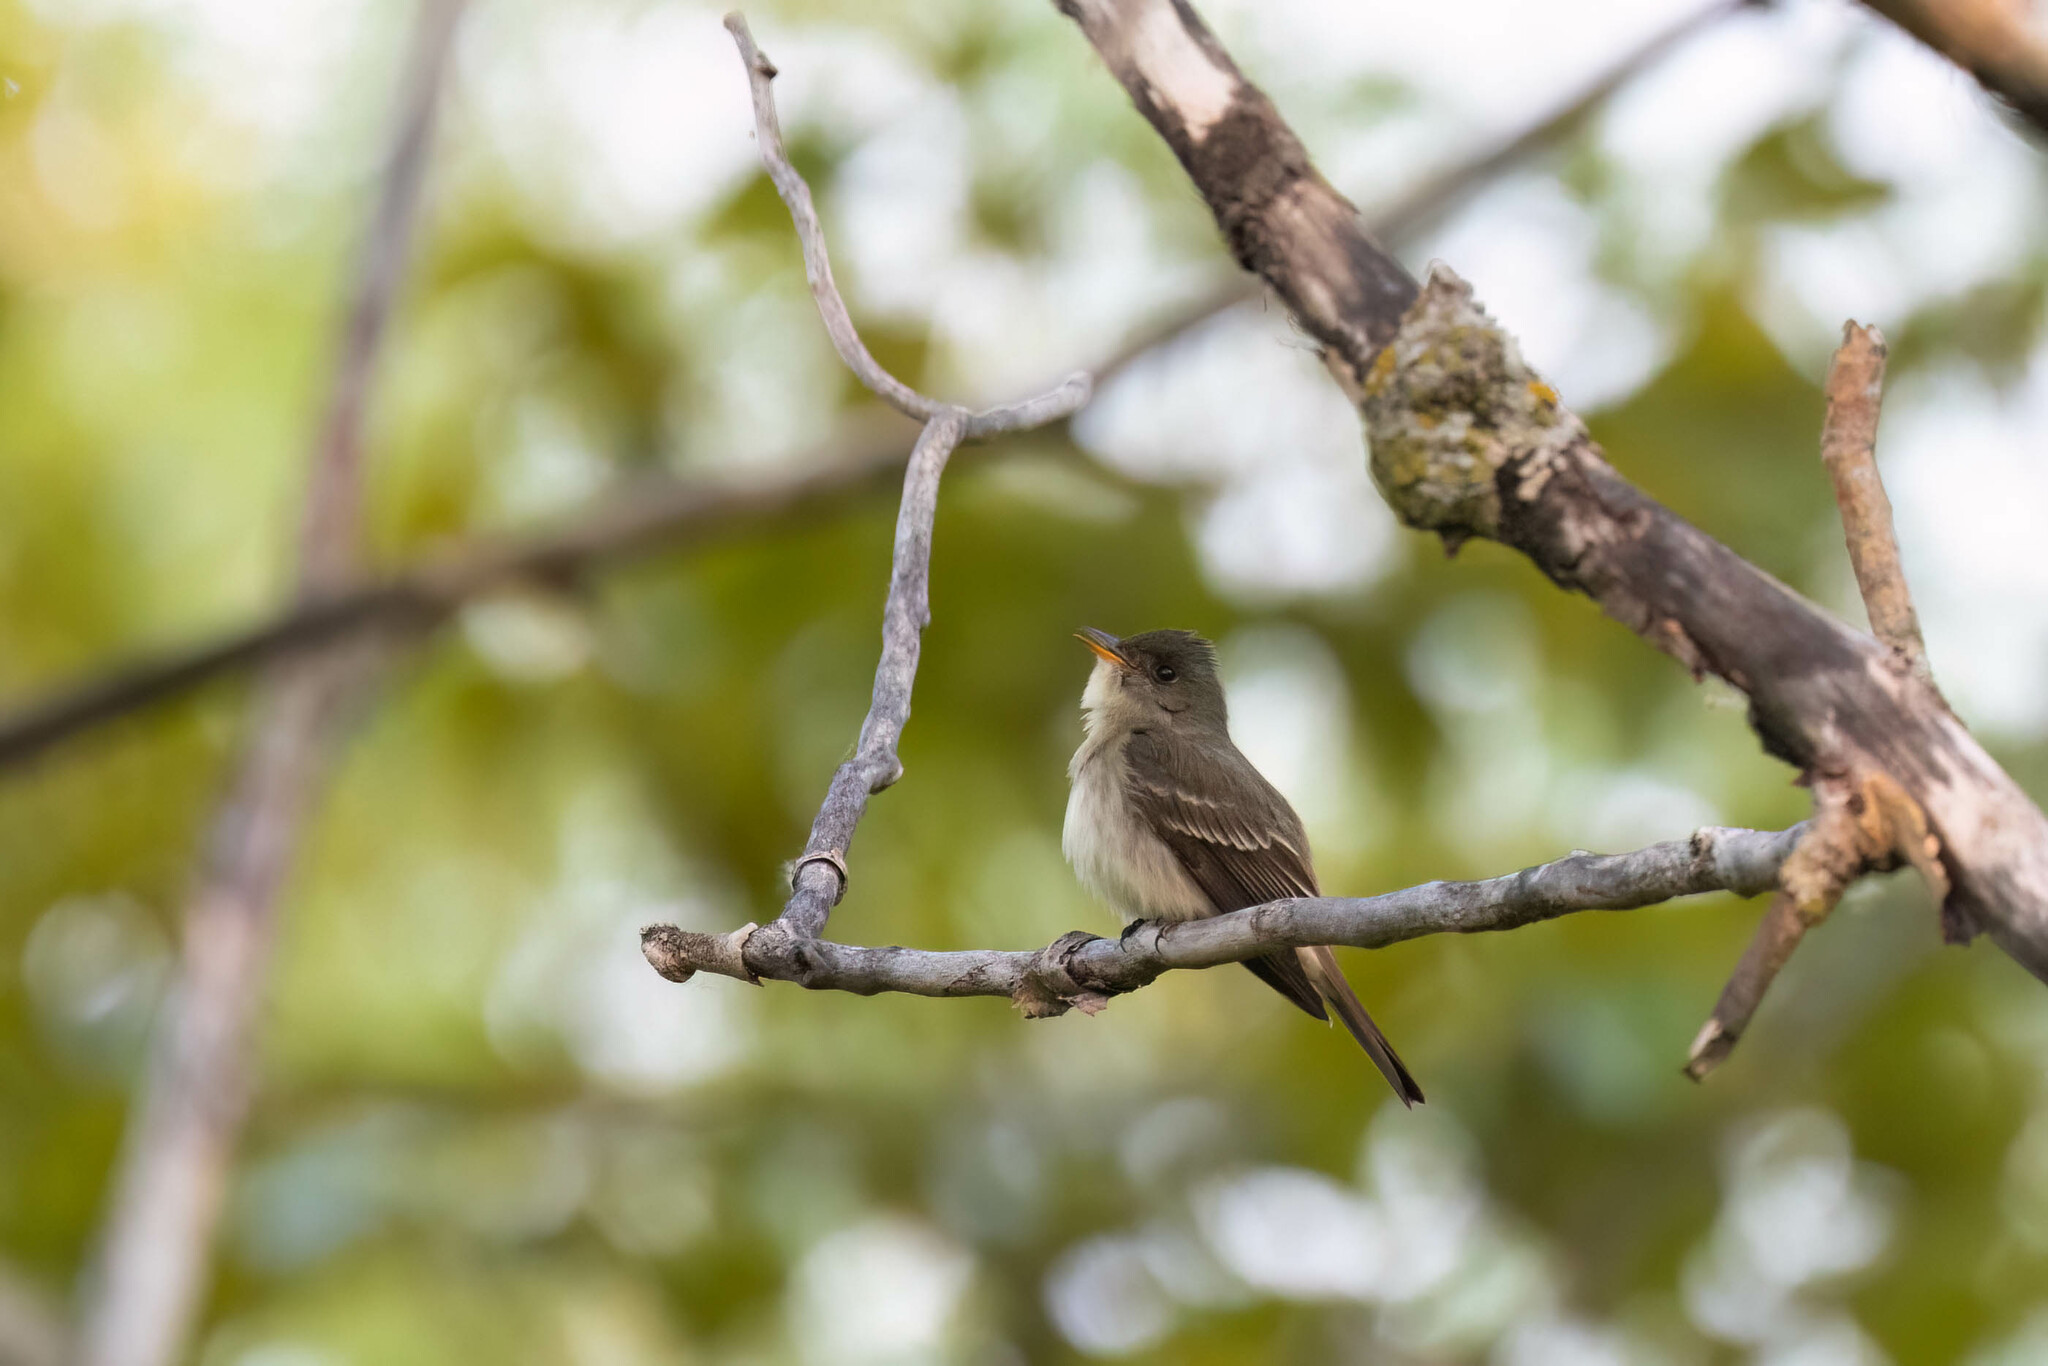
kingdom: Animalia
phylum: Chordata
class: Aves
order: Passeriformes
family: Tyrannidae
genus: Contopus
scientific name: Contopus virens
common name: Eastern wood-pewee
